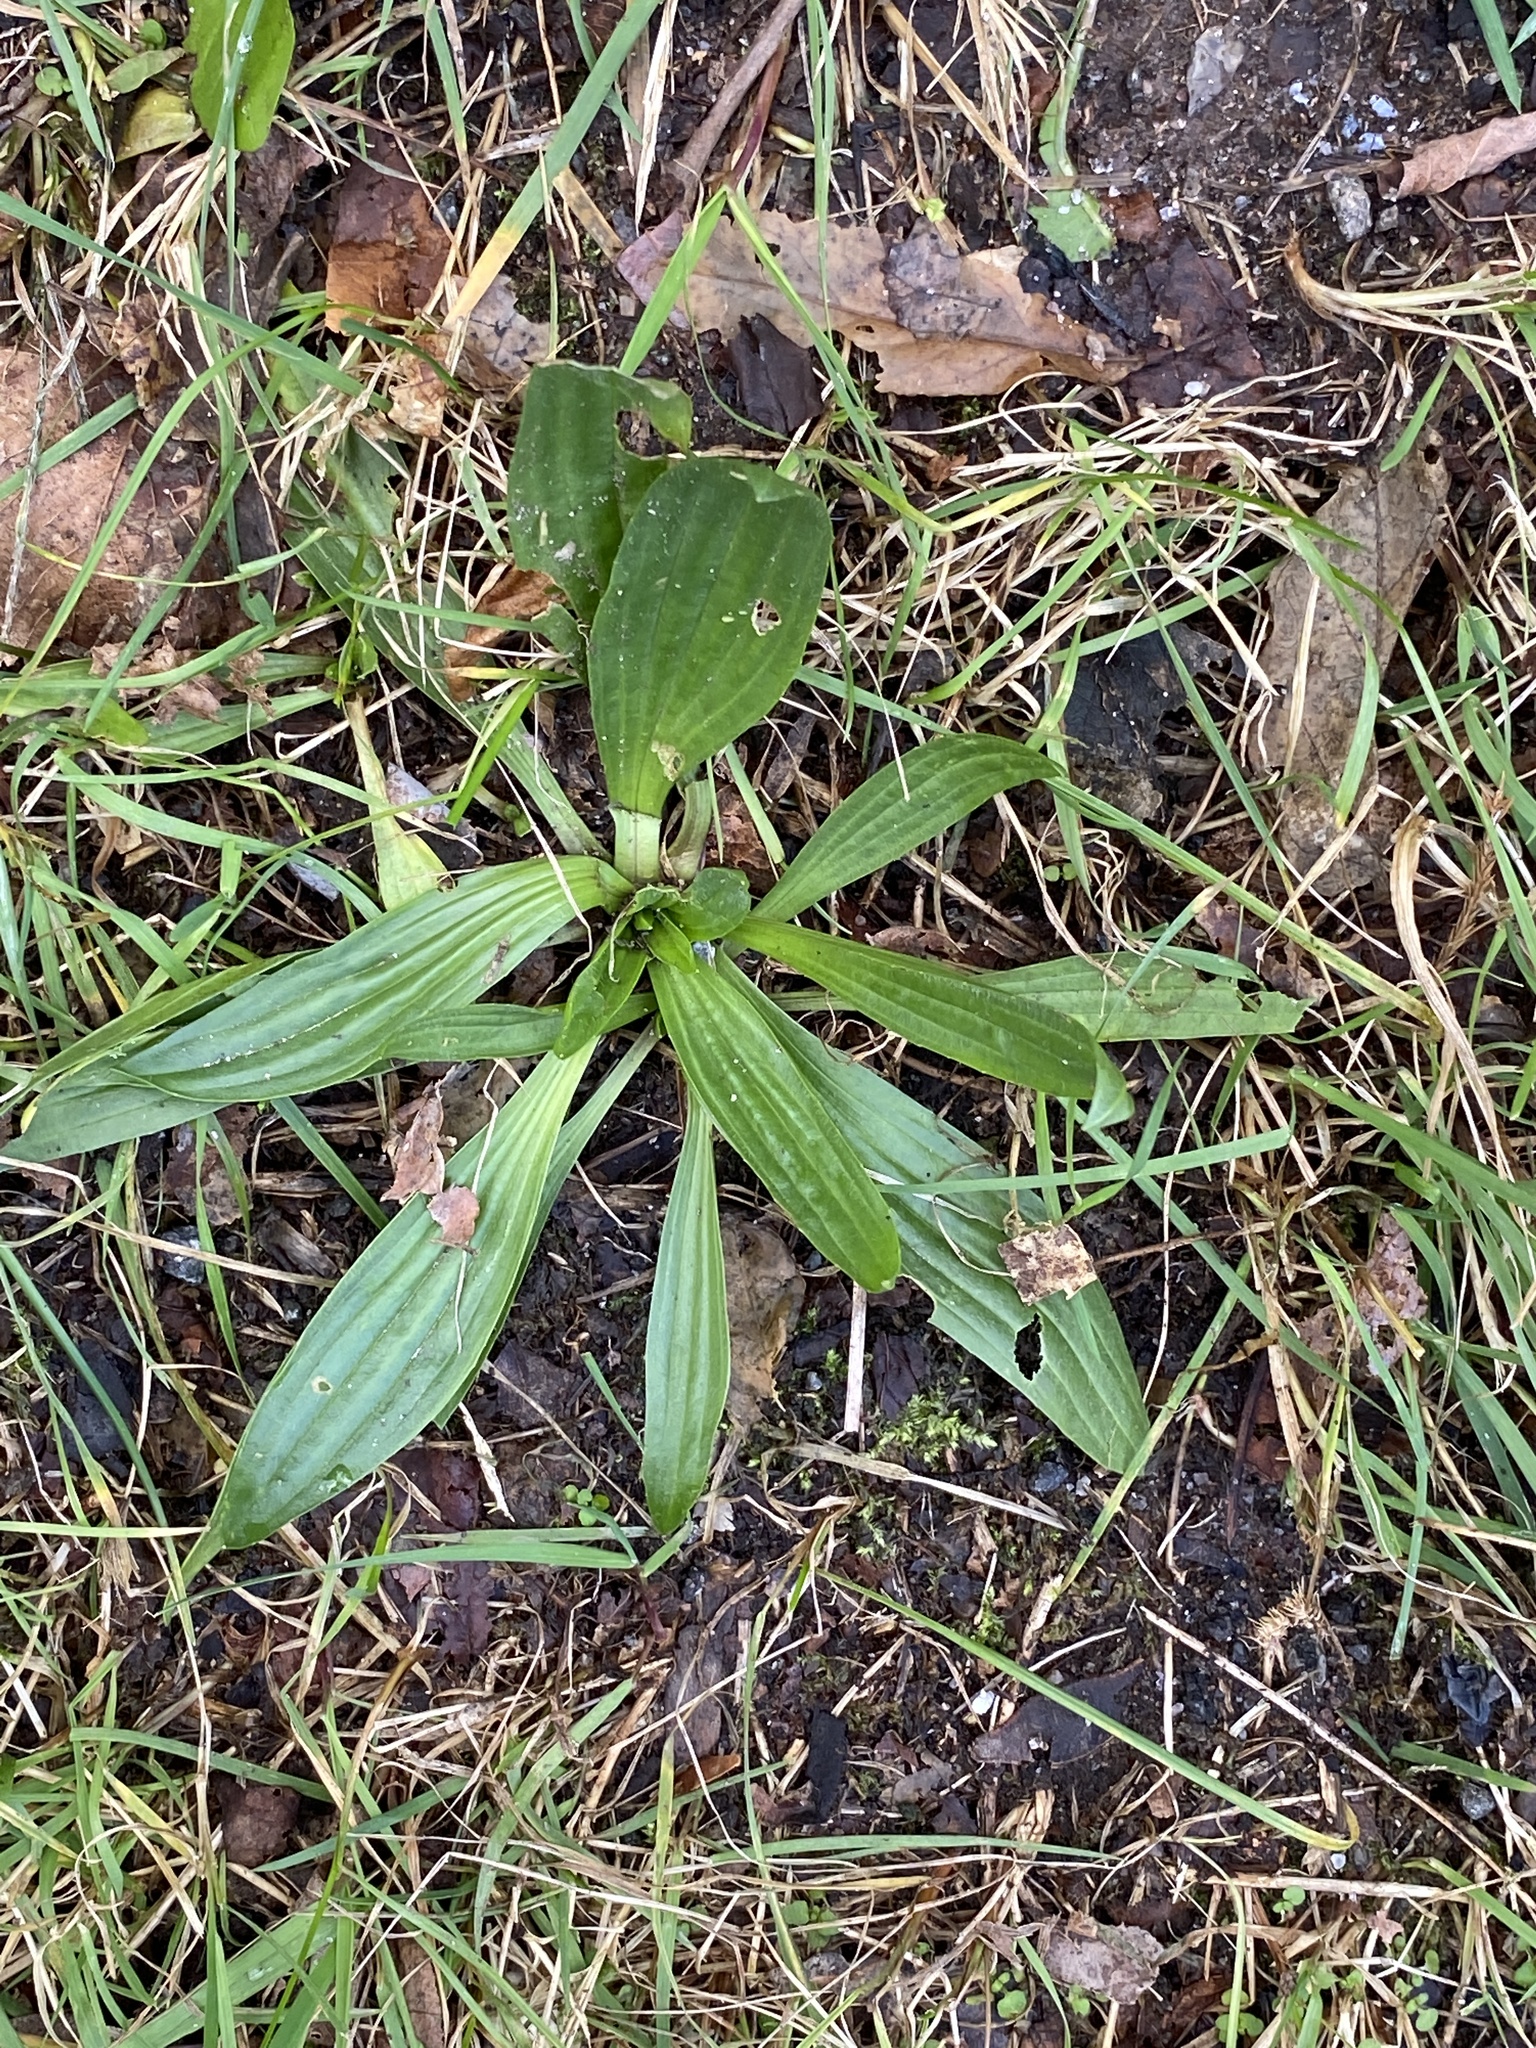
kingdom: Plantae
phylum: Tracheophyta
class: Magnoliopsida
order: Lamiales
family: Plantaginaceae
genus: Plantago
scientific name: Plantago lanceolata
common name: Ribwort plantain
